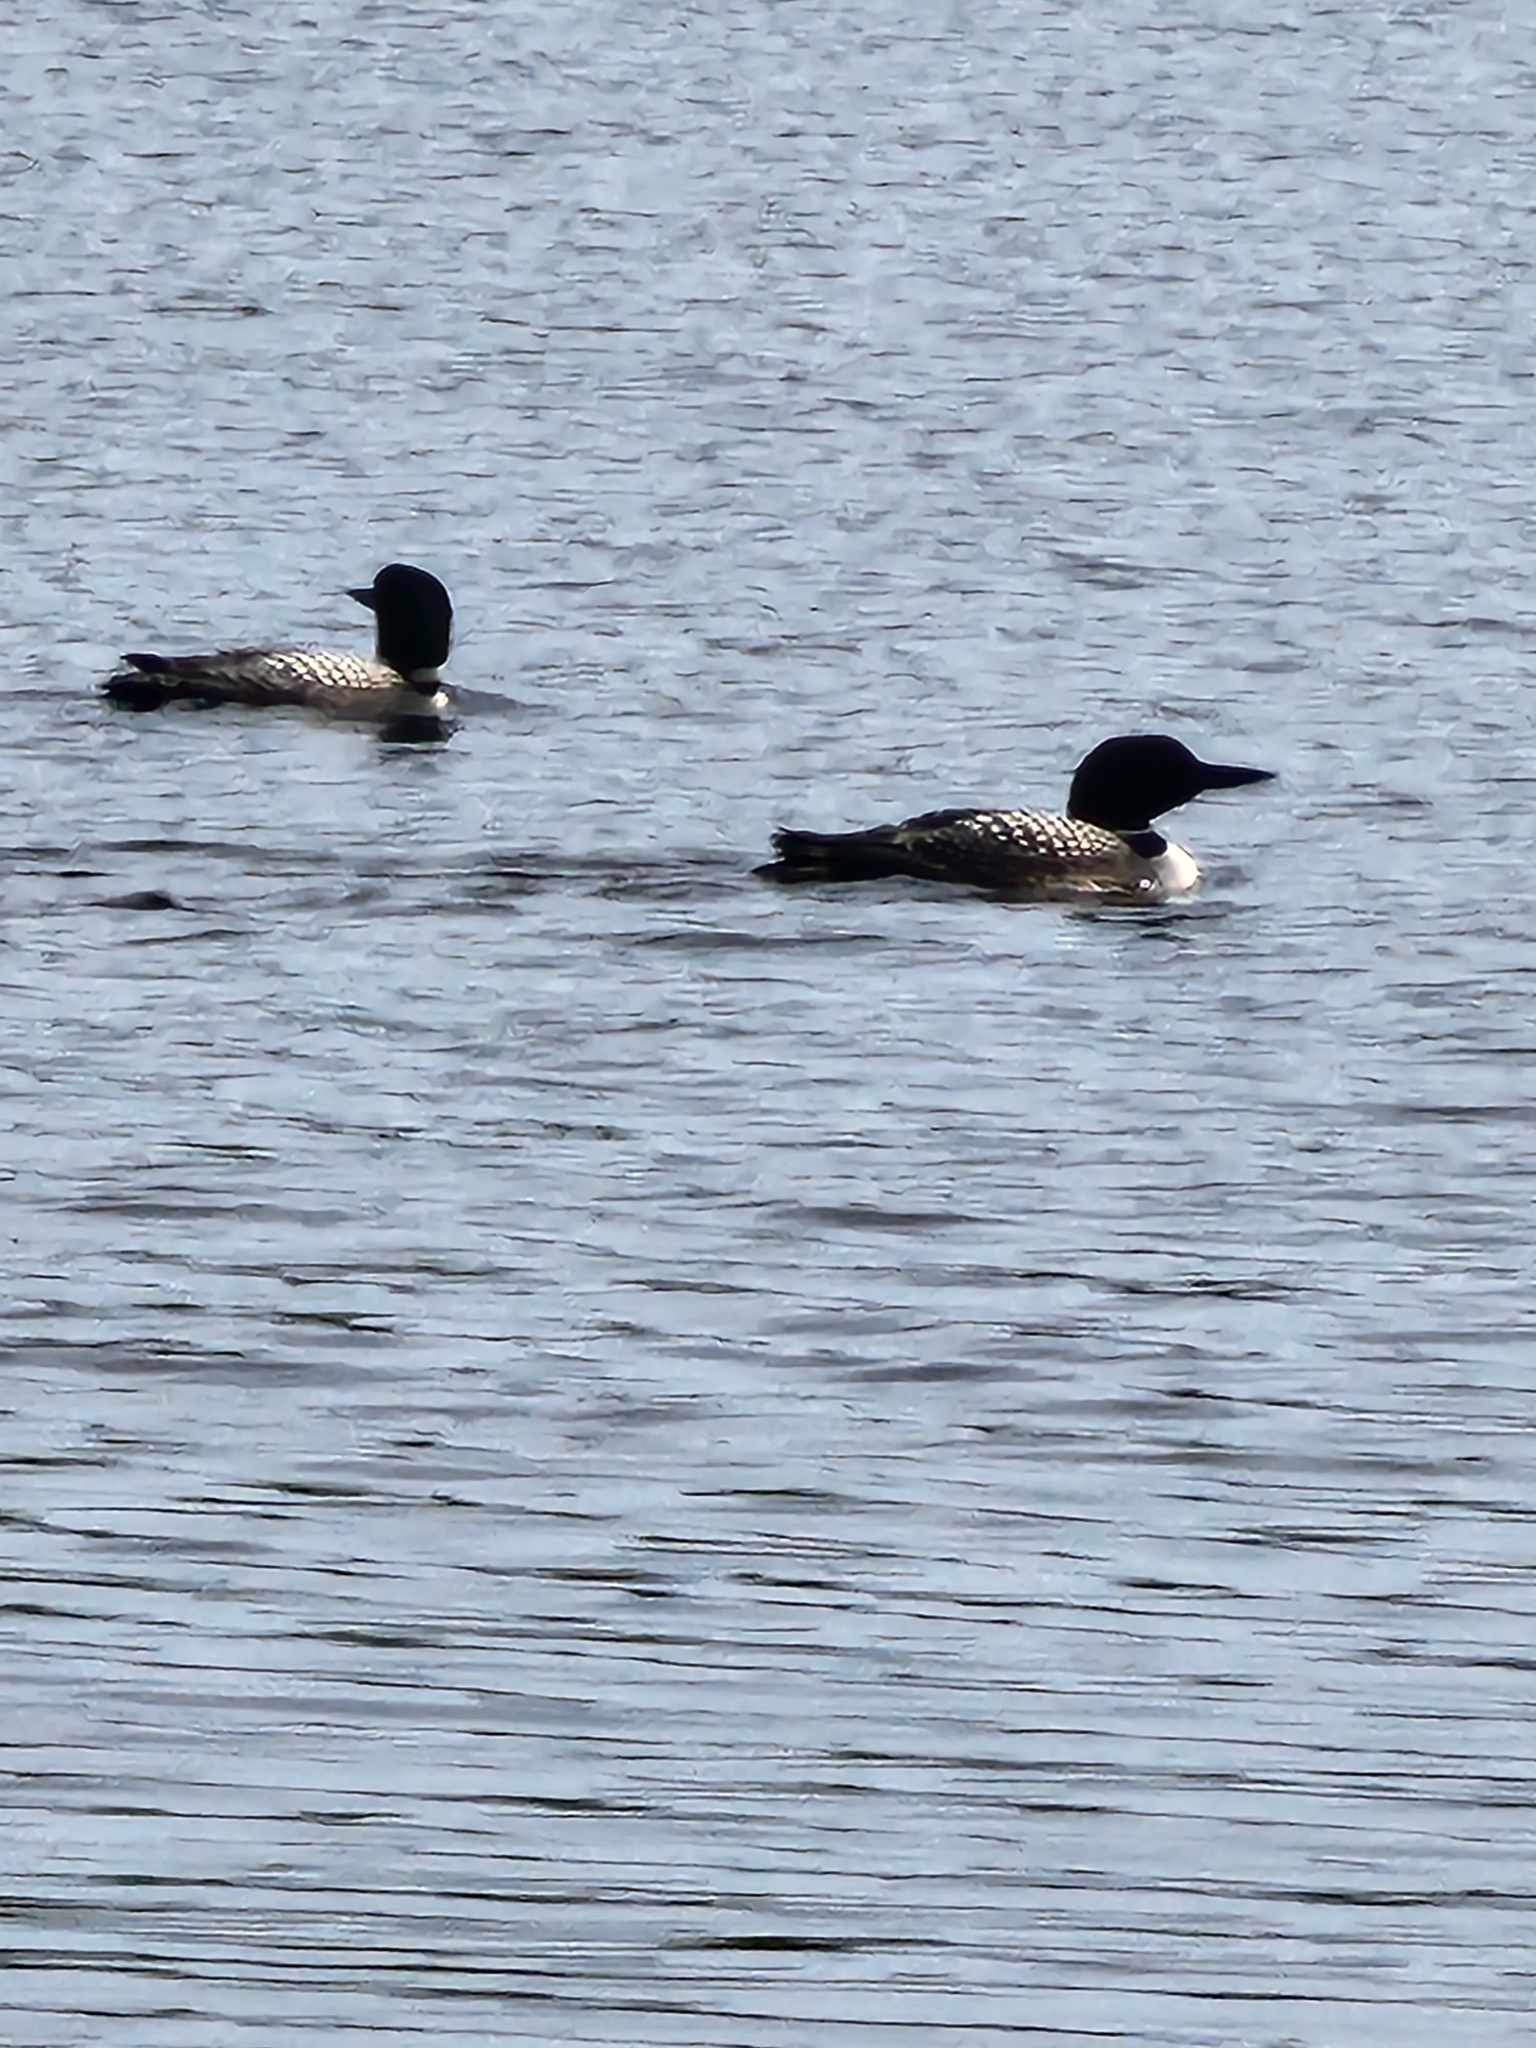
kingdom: Animalia
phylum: Chordata
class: Aves
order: Gaviiformes
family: Gaviidae
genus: Gavia
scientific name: Gavia immer
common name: Common loon
